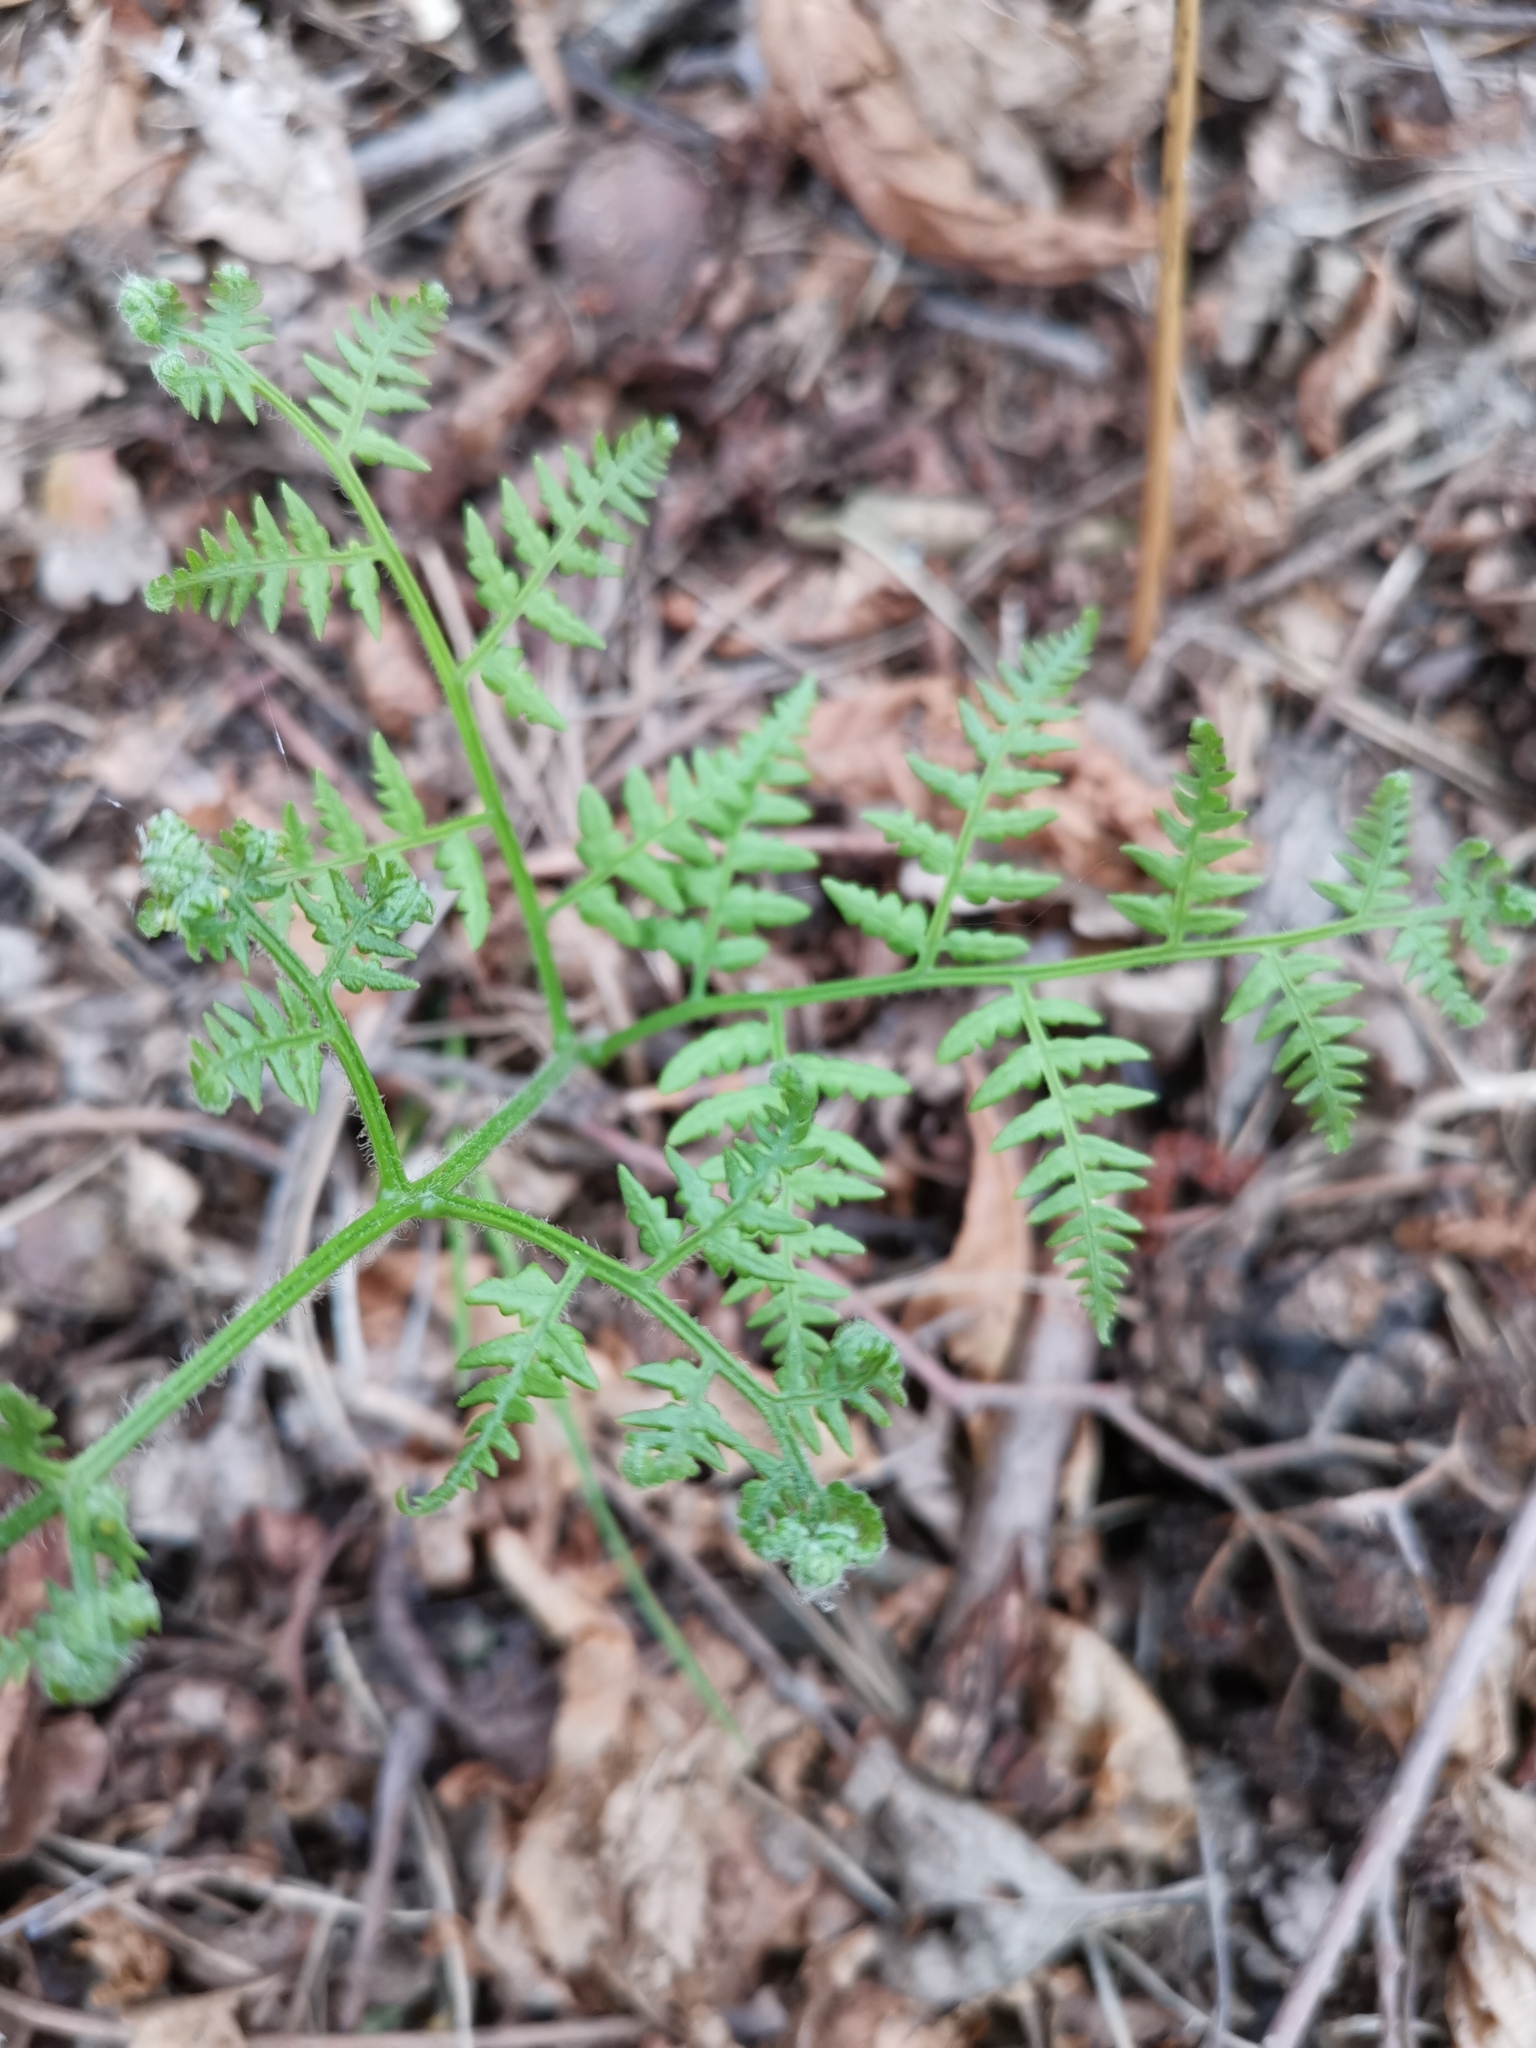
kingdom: Plantae
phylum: Tracheophyta
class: Polypodiopsida
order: Polypodiales
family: Dennstaedtiaceae
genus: Pteridium
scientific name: Pteridium aquilinum
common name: Bracken
